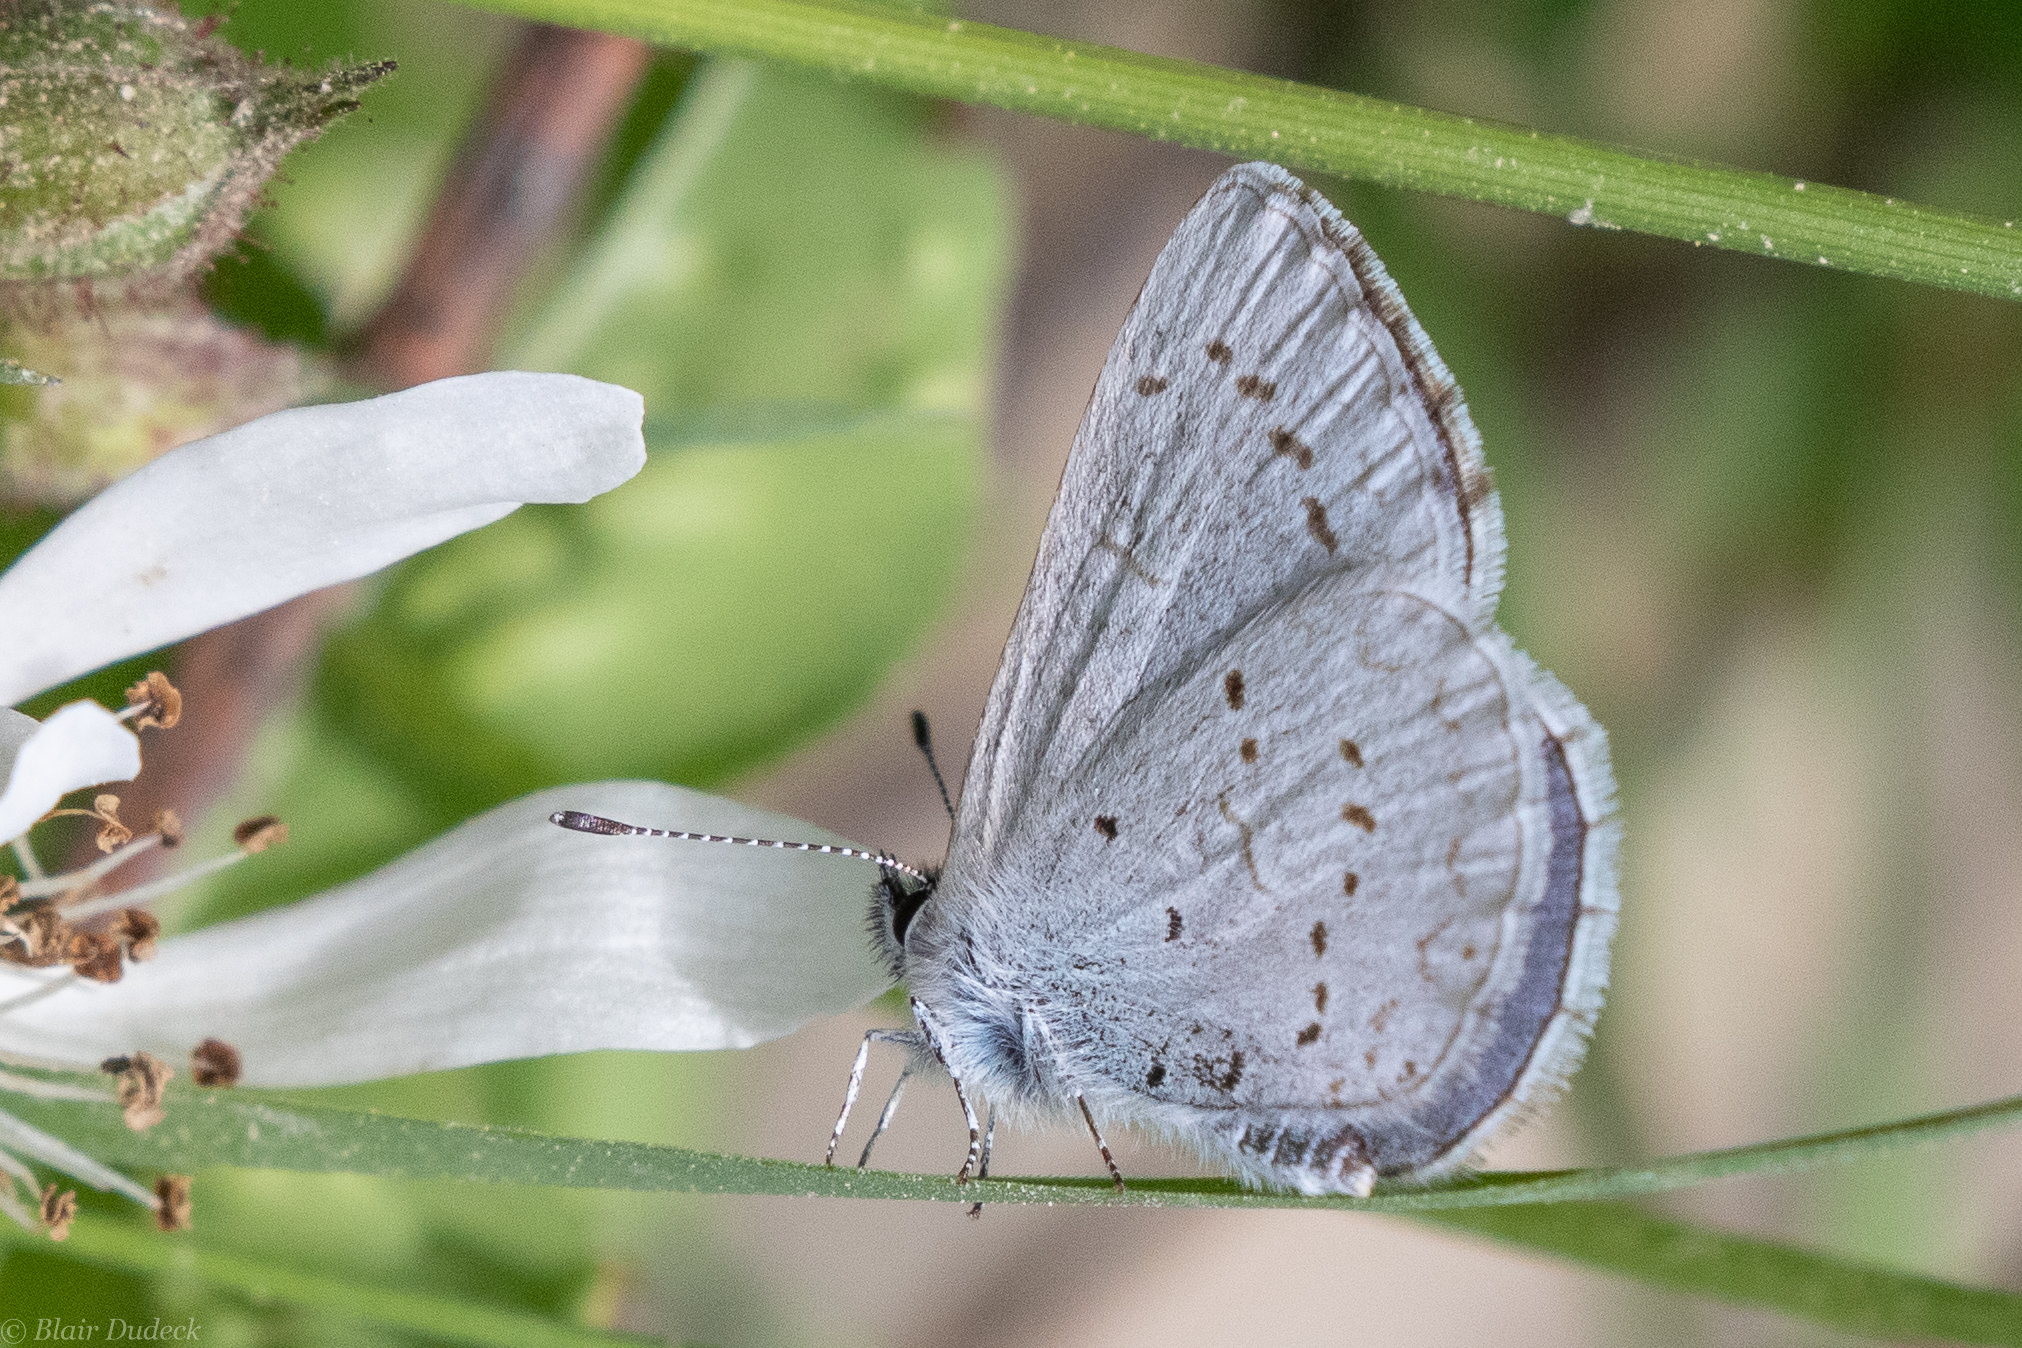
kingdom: Animalia
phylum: Arthropoda
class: Insecta
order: Lepidoptera
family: Lycaenidae
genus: Celastrina
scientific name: Celastrina ladon
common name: Spring azure
